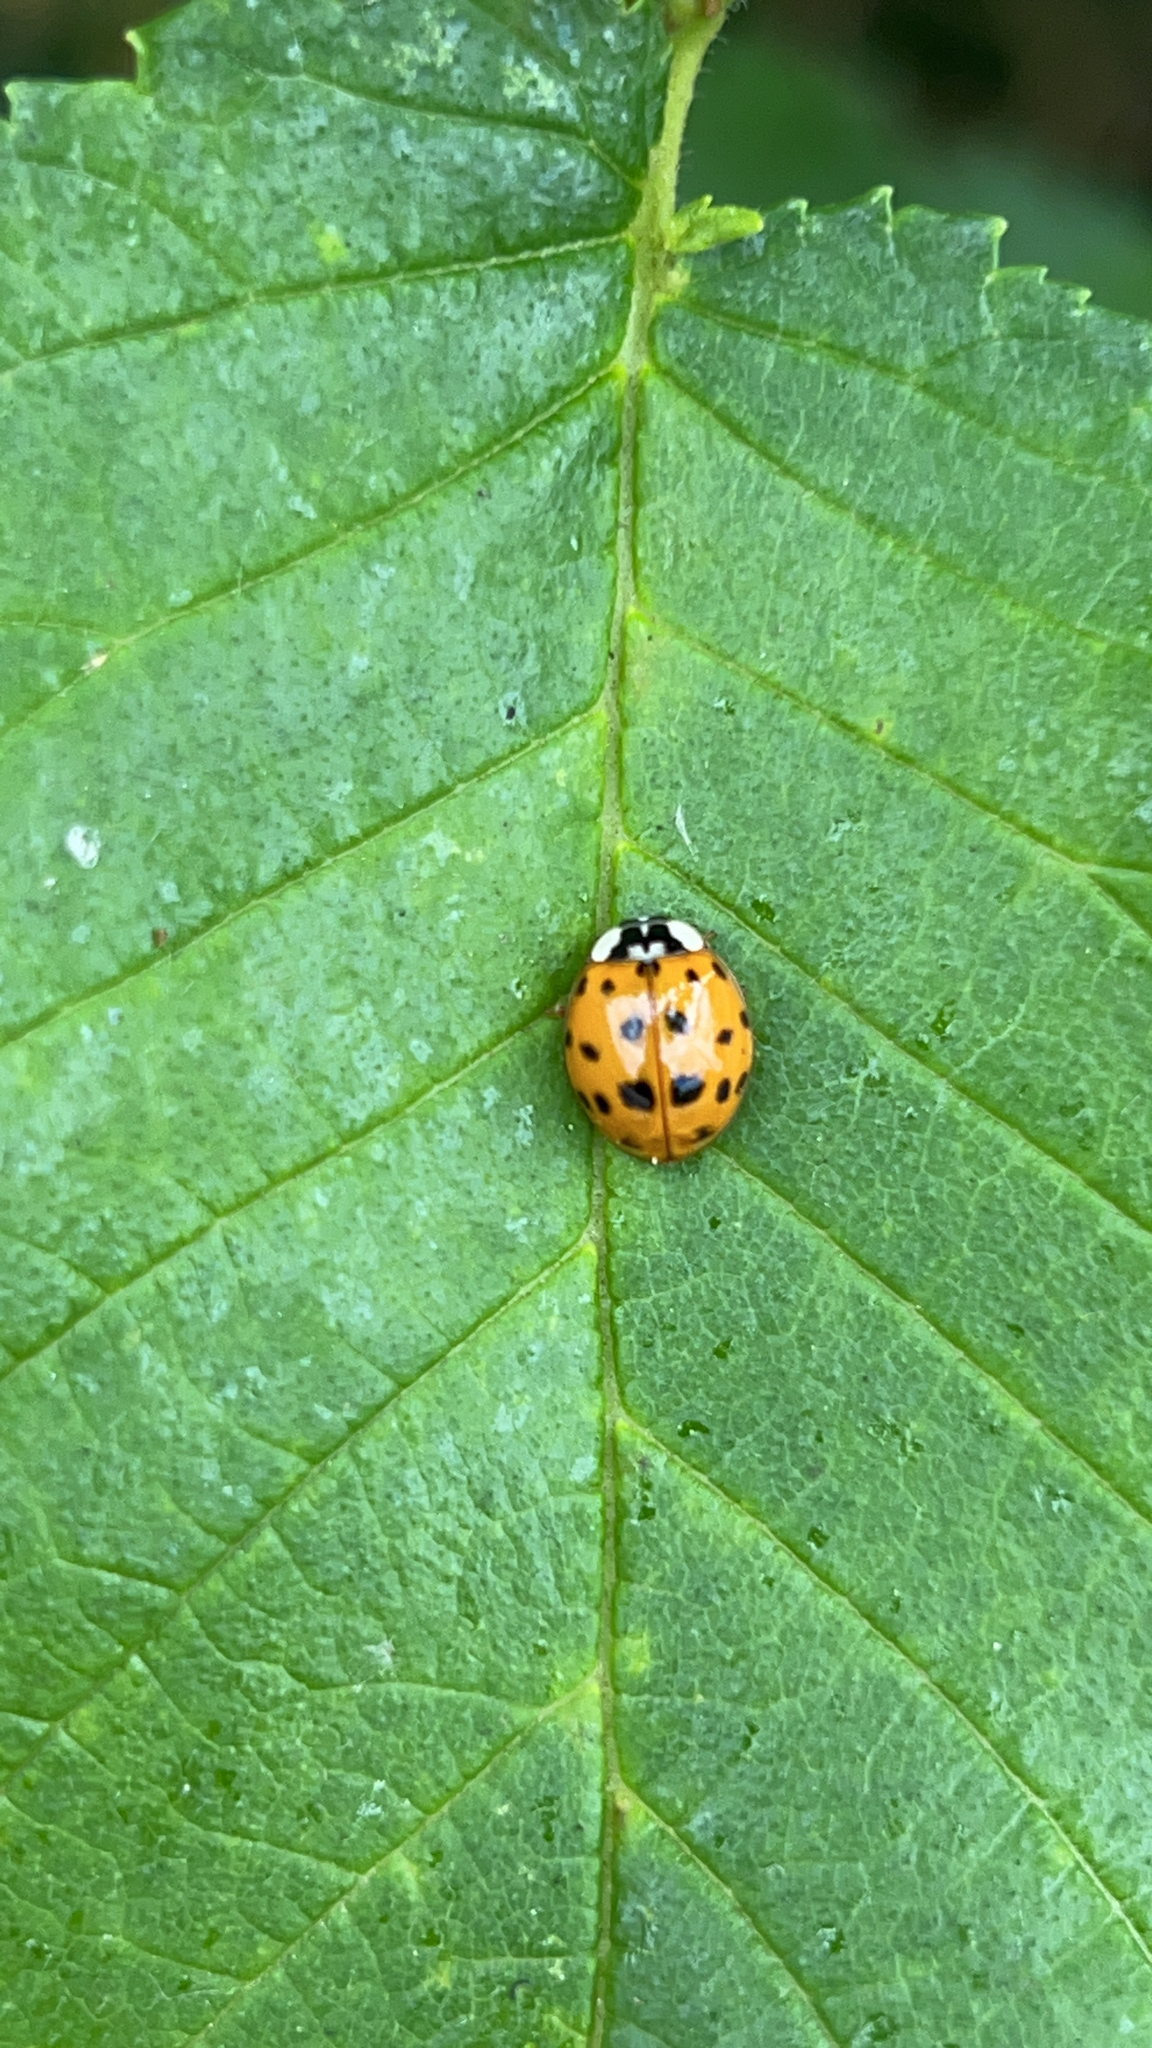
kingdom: Animalia
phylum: Arthropoda
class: Insecta
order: Coleoptera
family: Coccinellidae
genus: Harmonia
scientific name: Harmonia axyridis
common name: Harlequin ladybird
